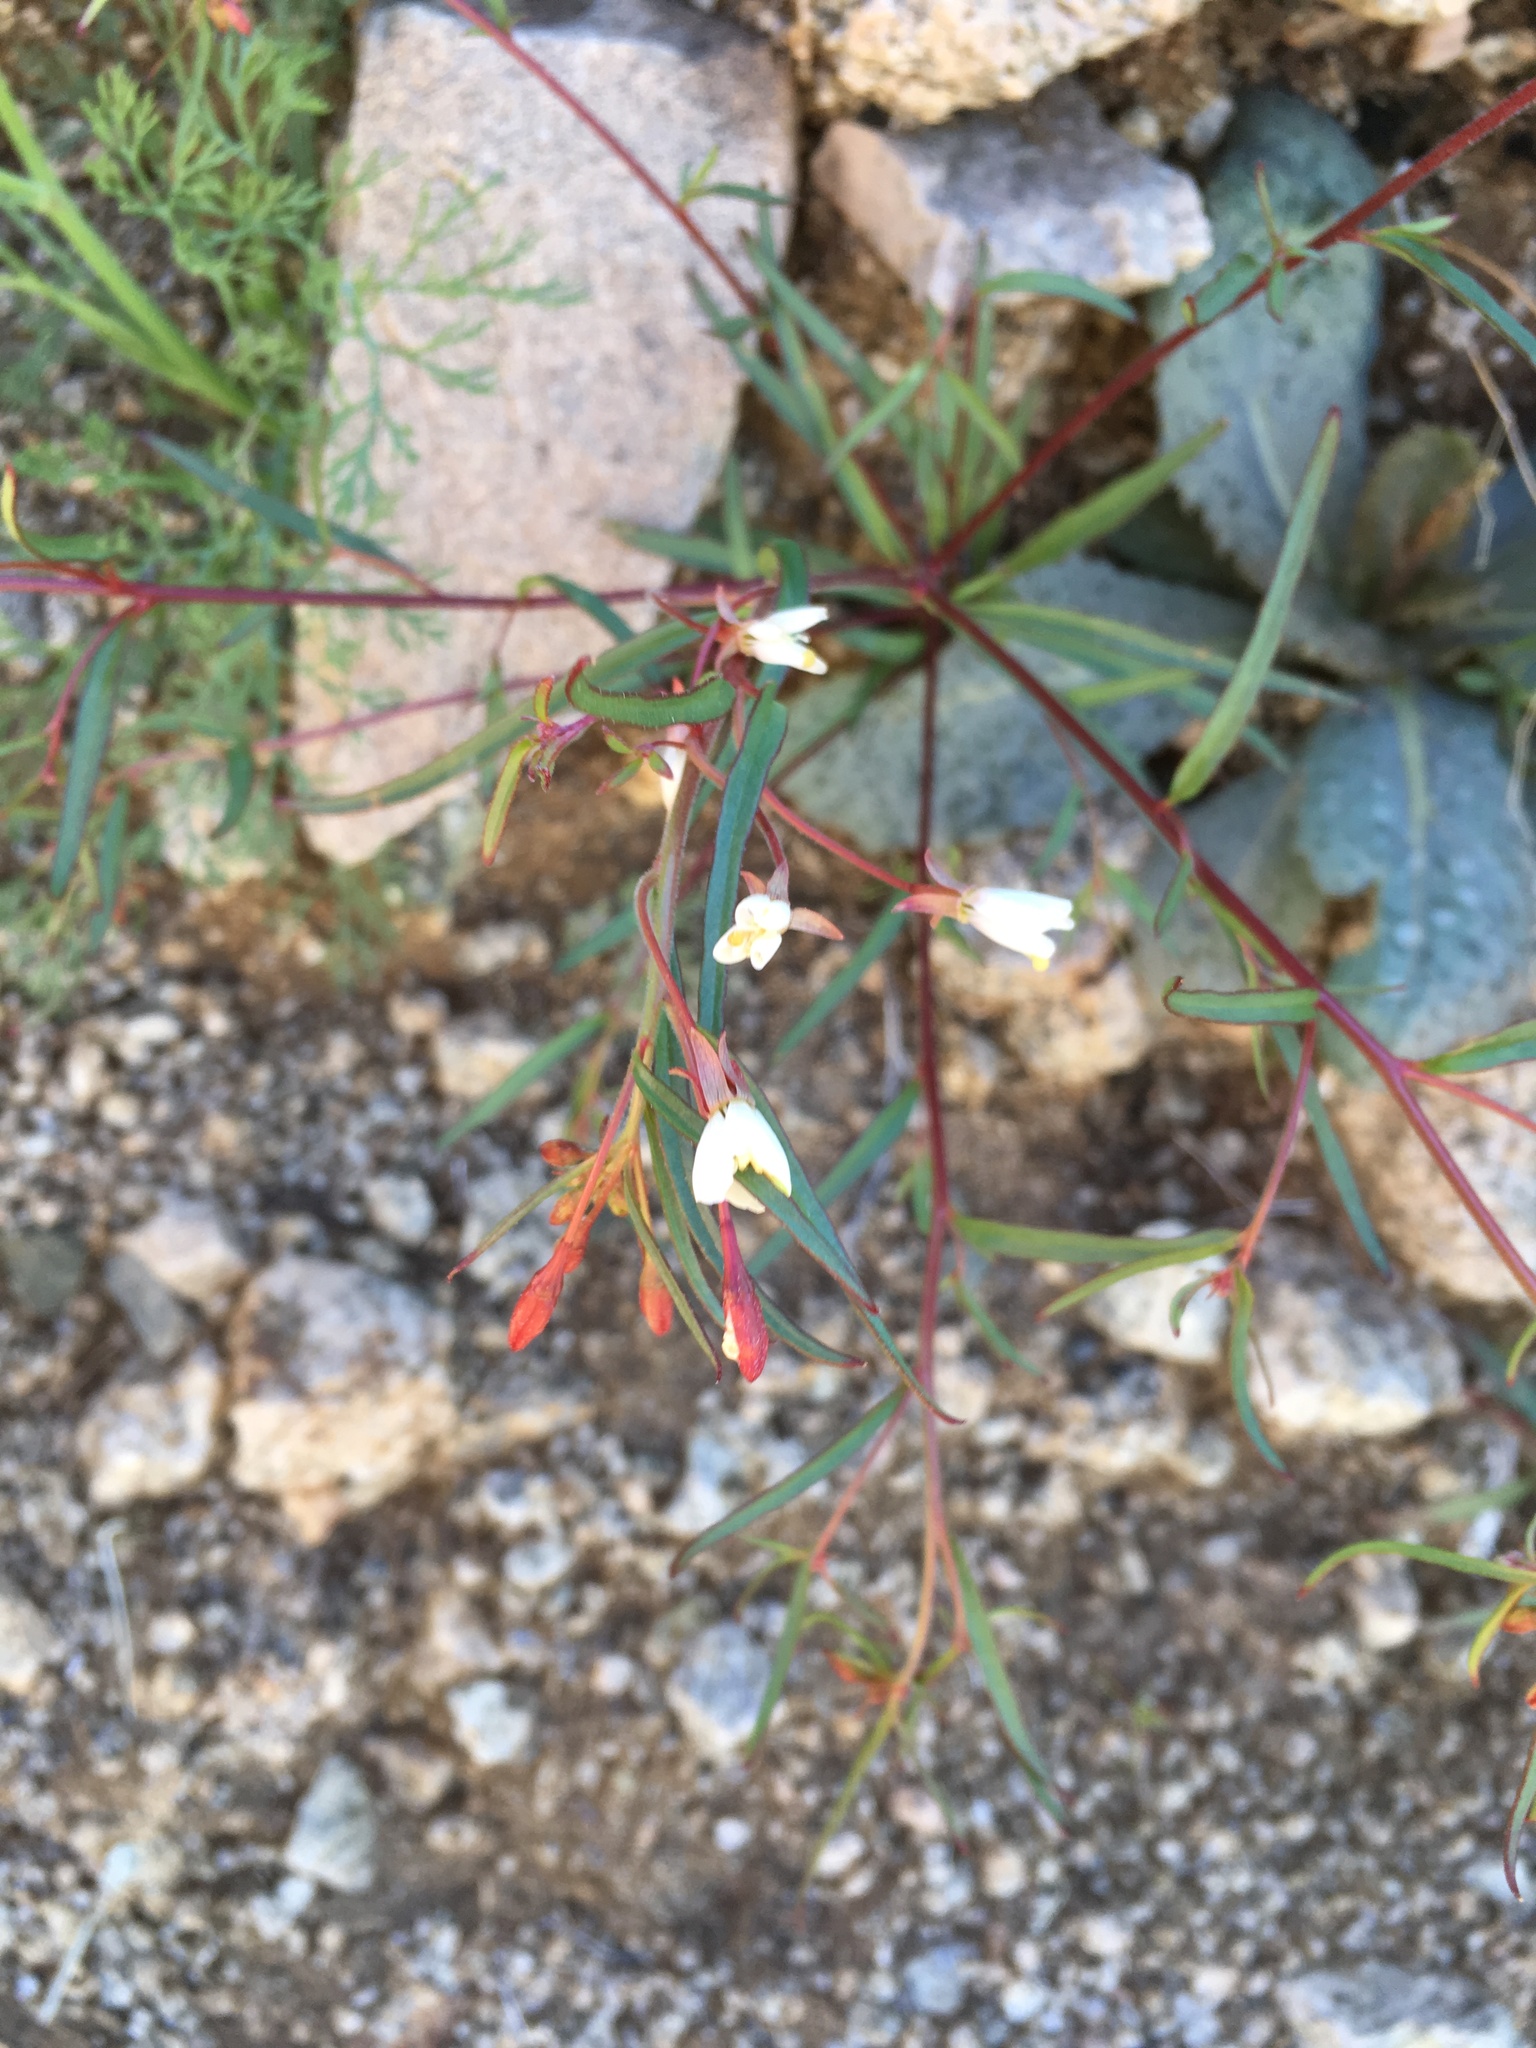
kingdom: Plantae
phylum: Tracheophyta
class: Magnoliopsida
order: Myrtales
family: Onagraceae
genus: Eremothera
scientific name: Eremothera refracta
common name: Narrowleaf suncup
